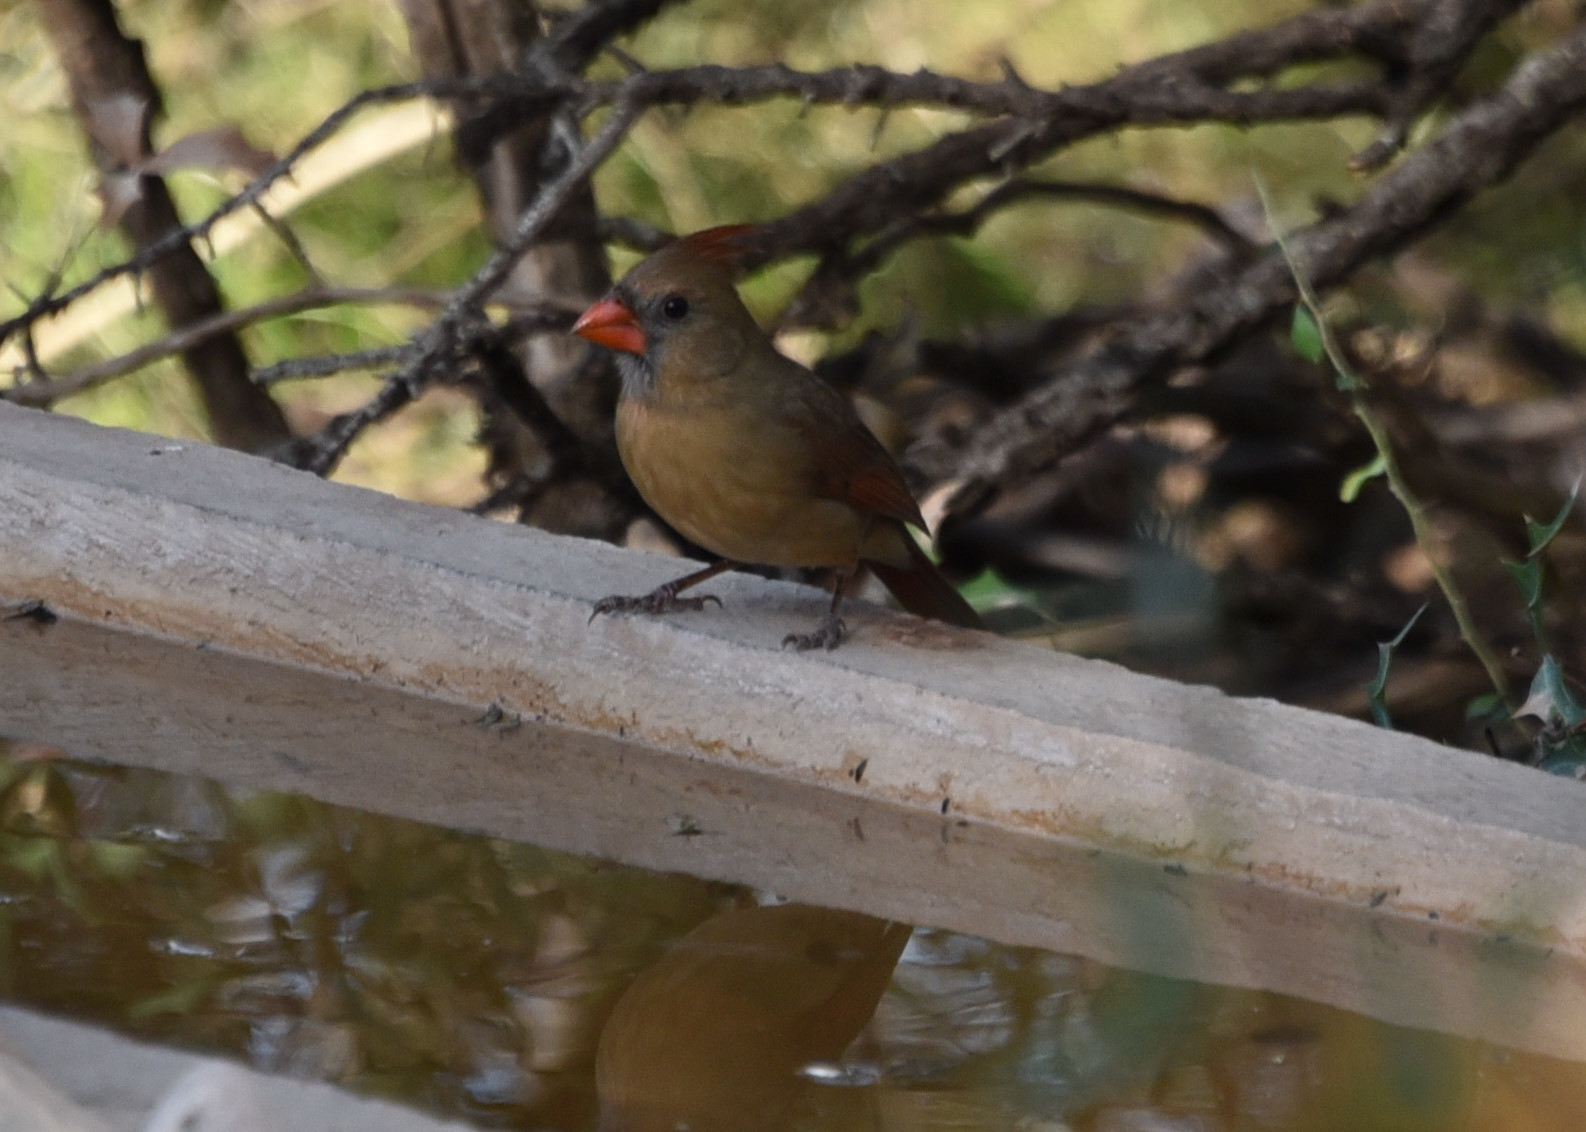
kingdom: Animalia
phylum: Chordata
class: Aves
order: Passeriformes
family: Cardinalidae
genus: Cardinalis
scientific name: Cardinalis cardinalis
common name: Northern cardinal
